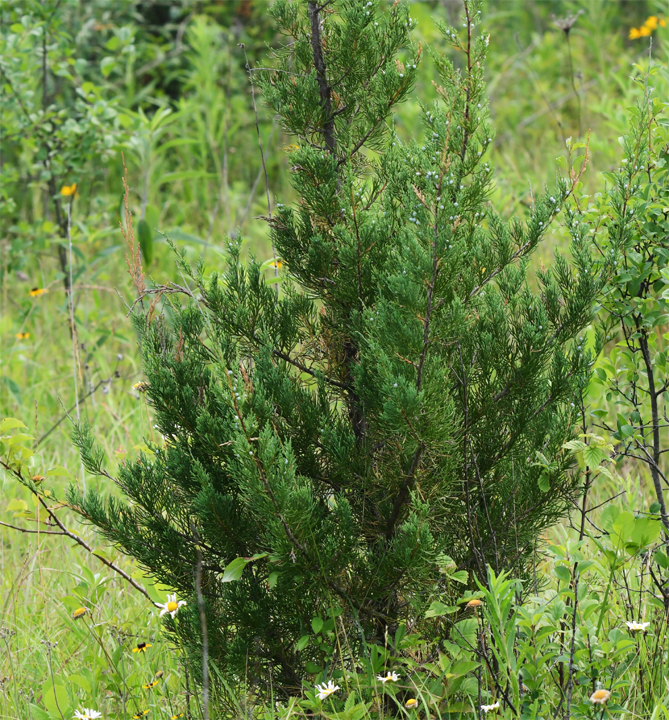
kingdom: Plantae
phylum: Tracheophyta
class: Pinopsida
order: Pinales
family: Cupressaceae
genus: Juniperus
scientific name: Juniperus virginiana
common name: Red juniper
